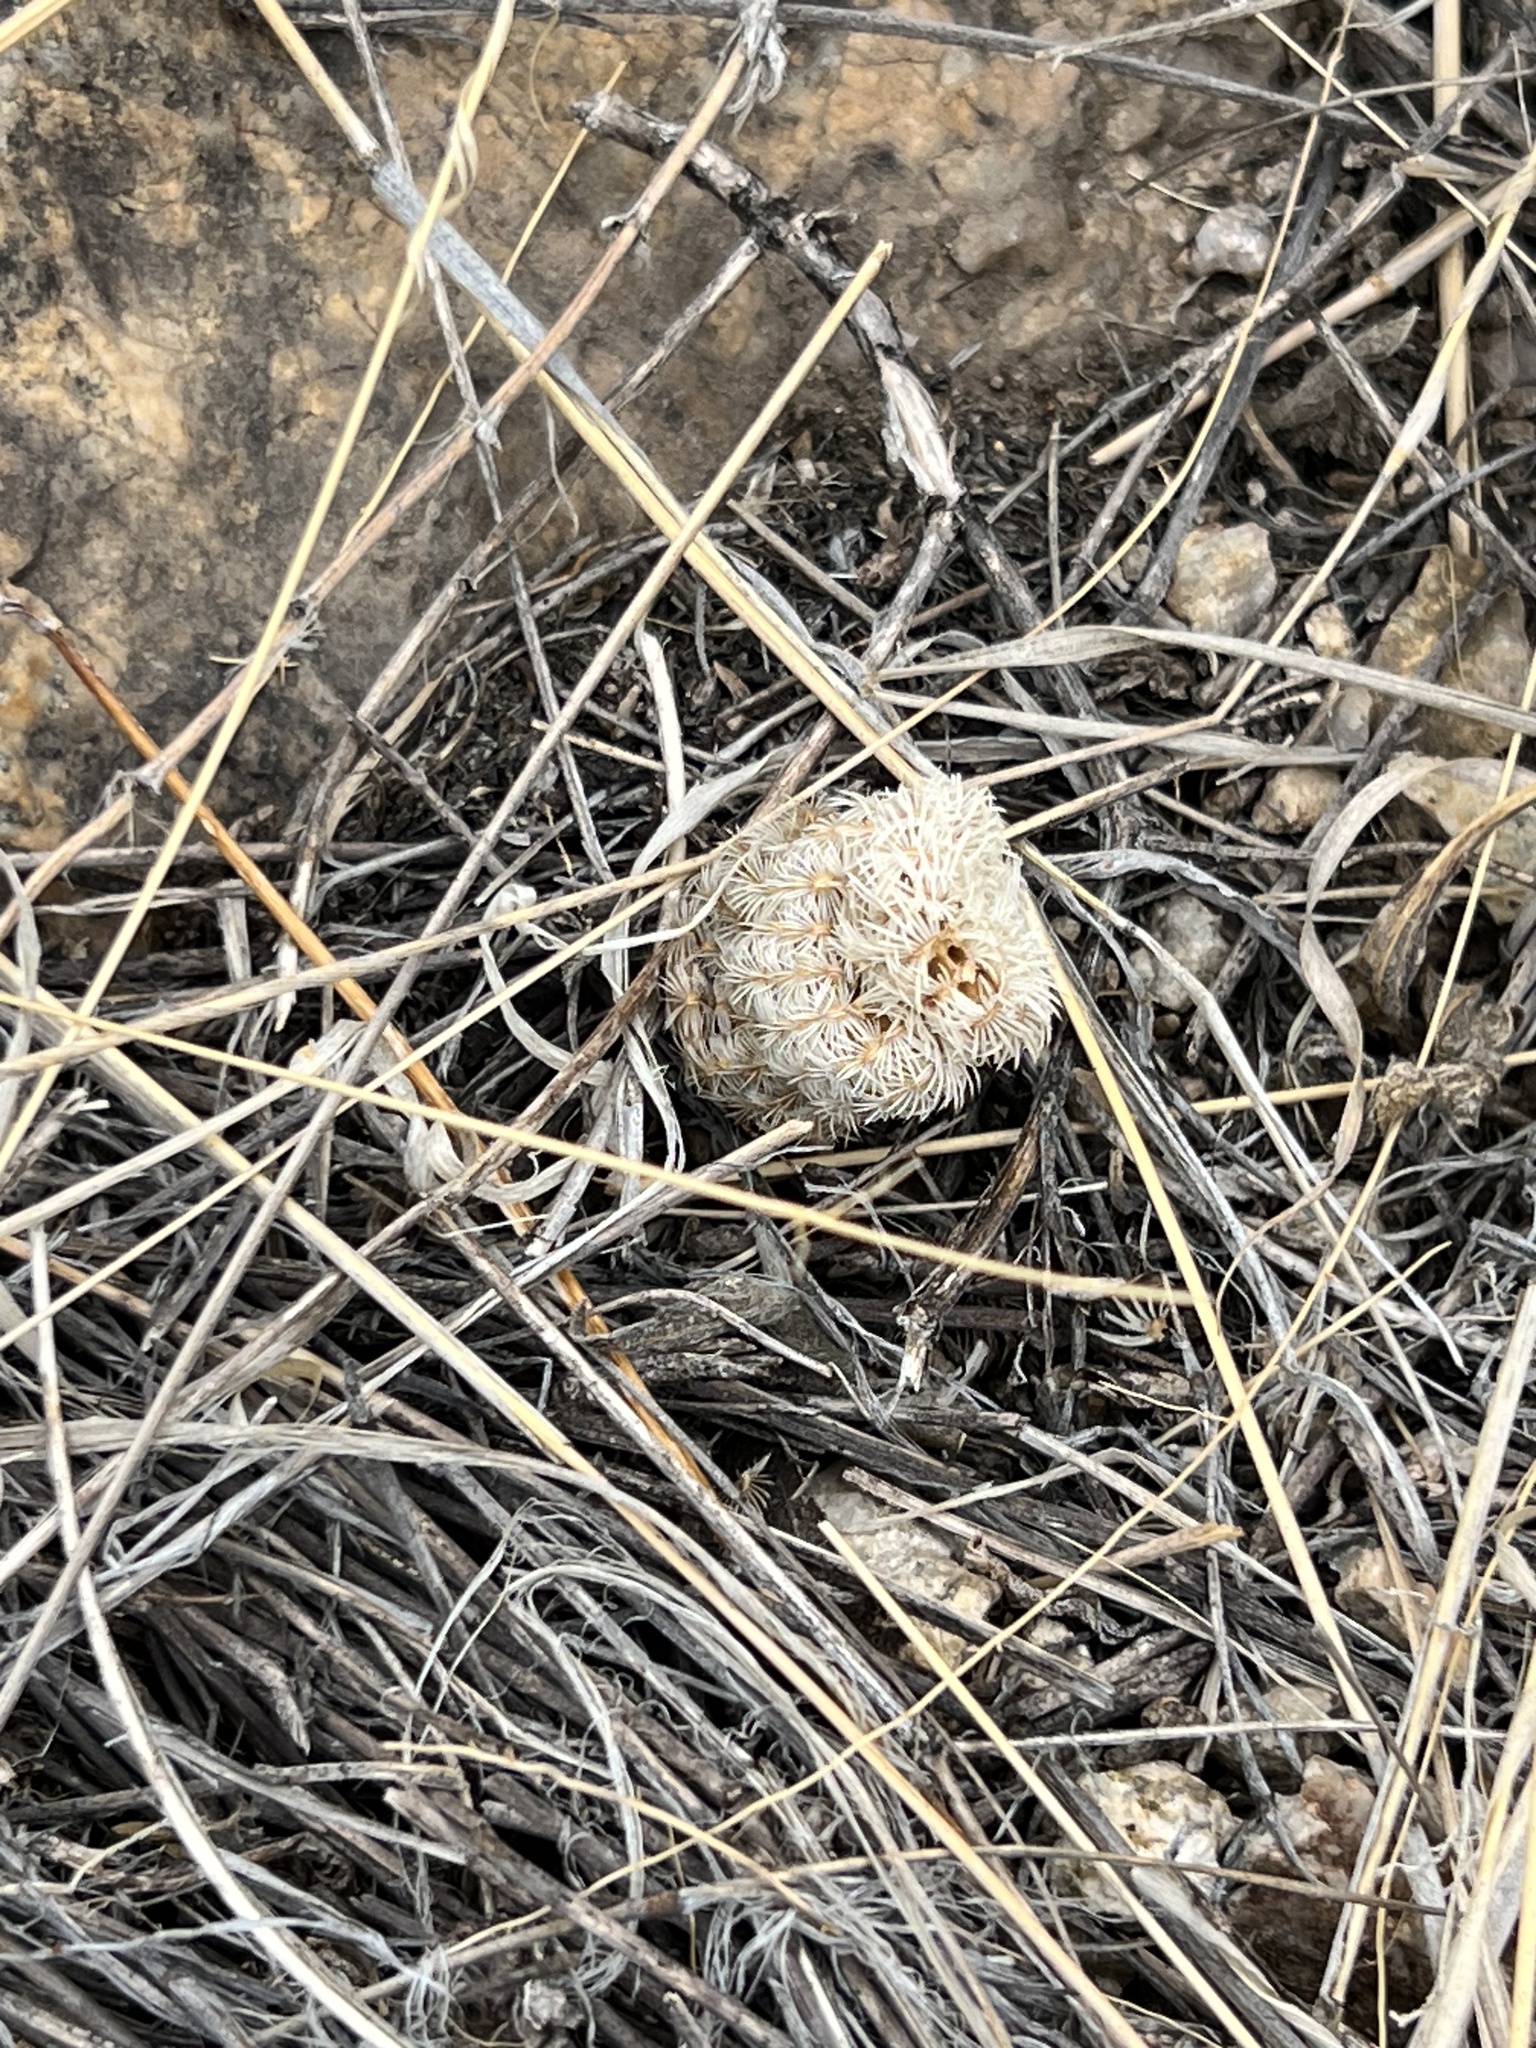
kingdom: Plantae
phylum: Tracheophyta
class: Magnoliopsida
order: Caryophyllales
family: Cactaceae
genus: Echinocereus
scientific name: Echinocereus rigidissimus
